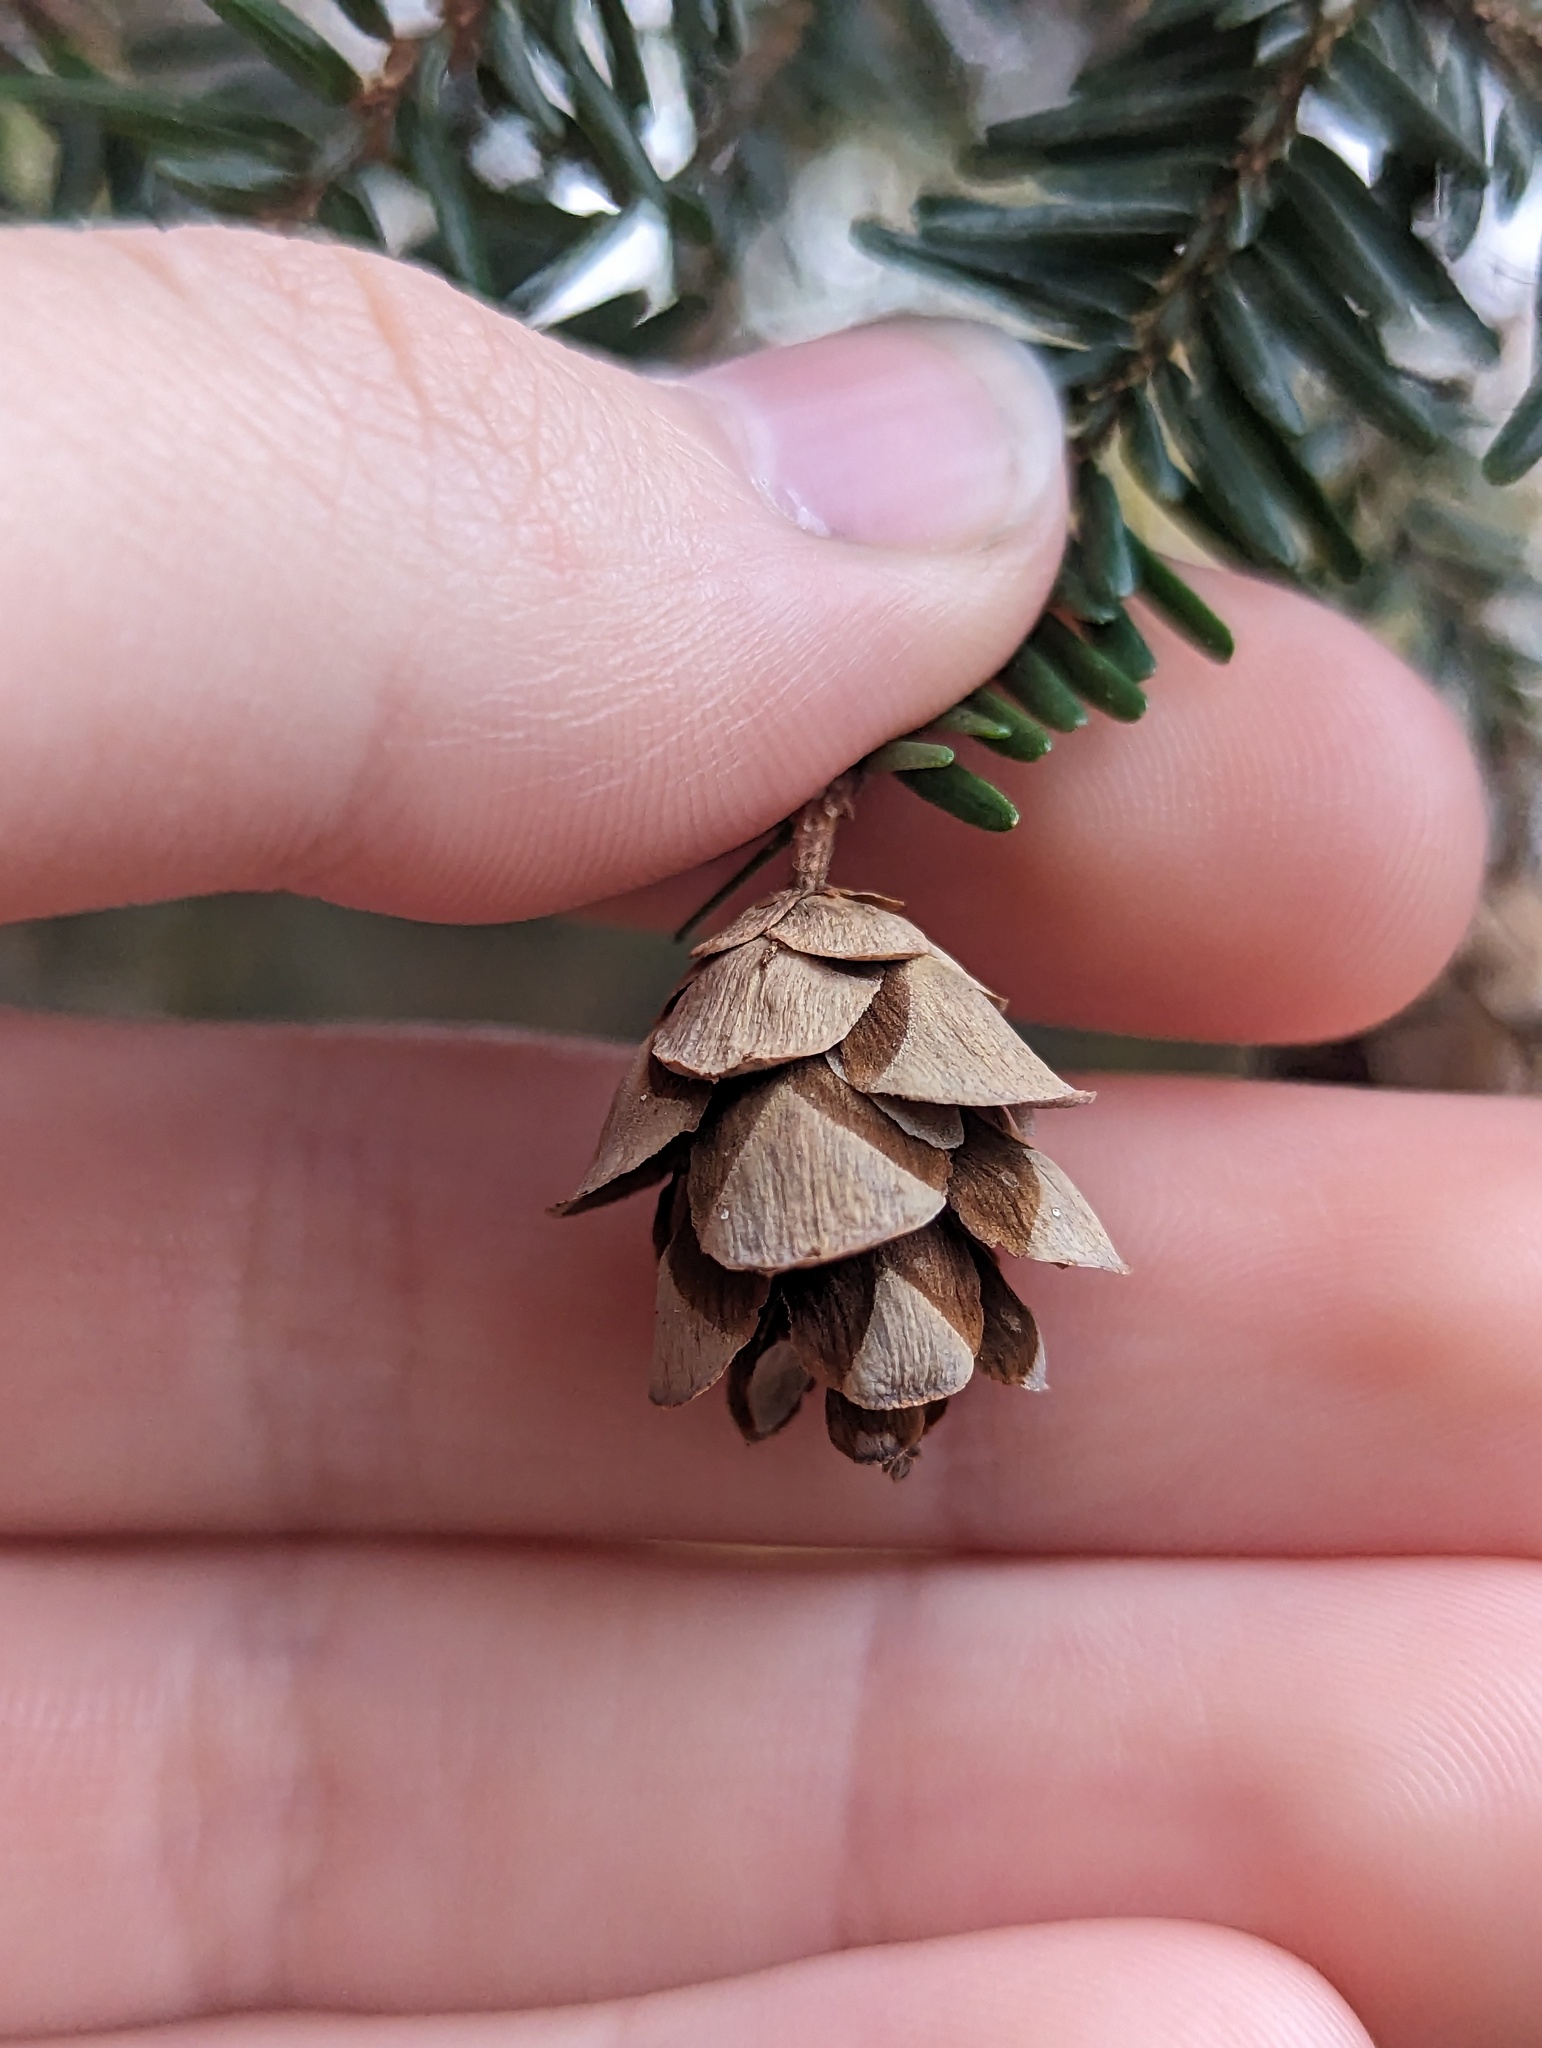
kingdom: Plantae
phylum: Tracheophyta
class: Pinopsida
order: Pinales
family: Pinaceae
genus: Tsuga
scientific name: Tsuga canadensis
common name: Eastern hemlock
